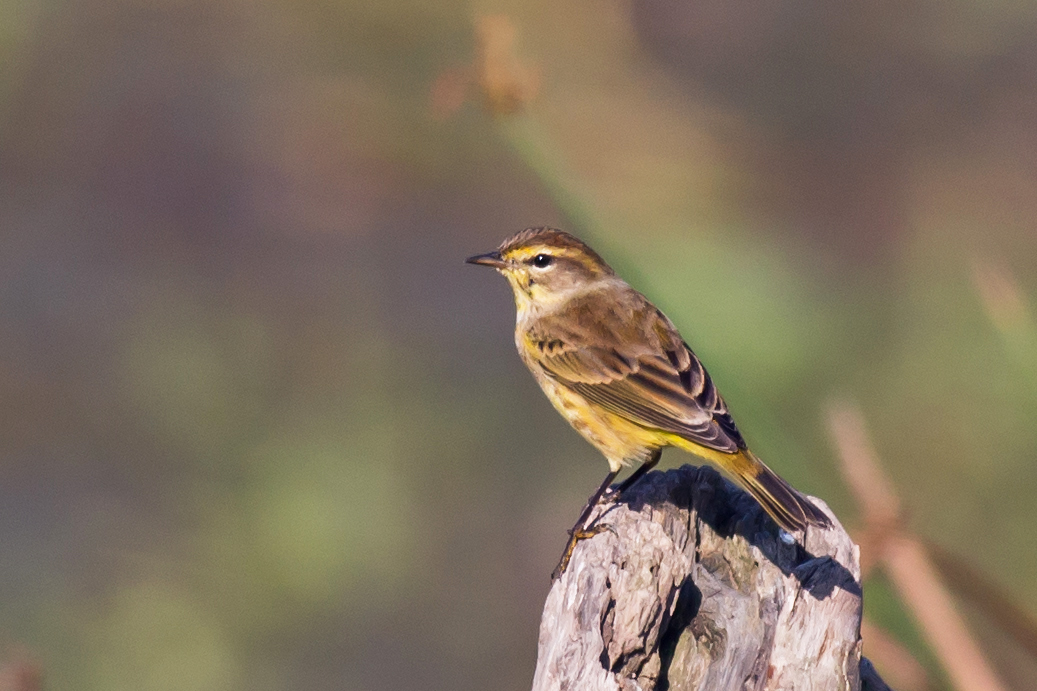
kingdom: Animalia
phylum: Chordata
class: Aves
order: Passeriformes
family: Parulidae
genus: Setophaga
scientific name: Setophaga palmarum
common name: Palm warbler
